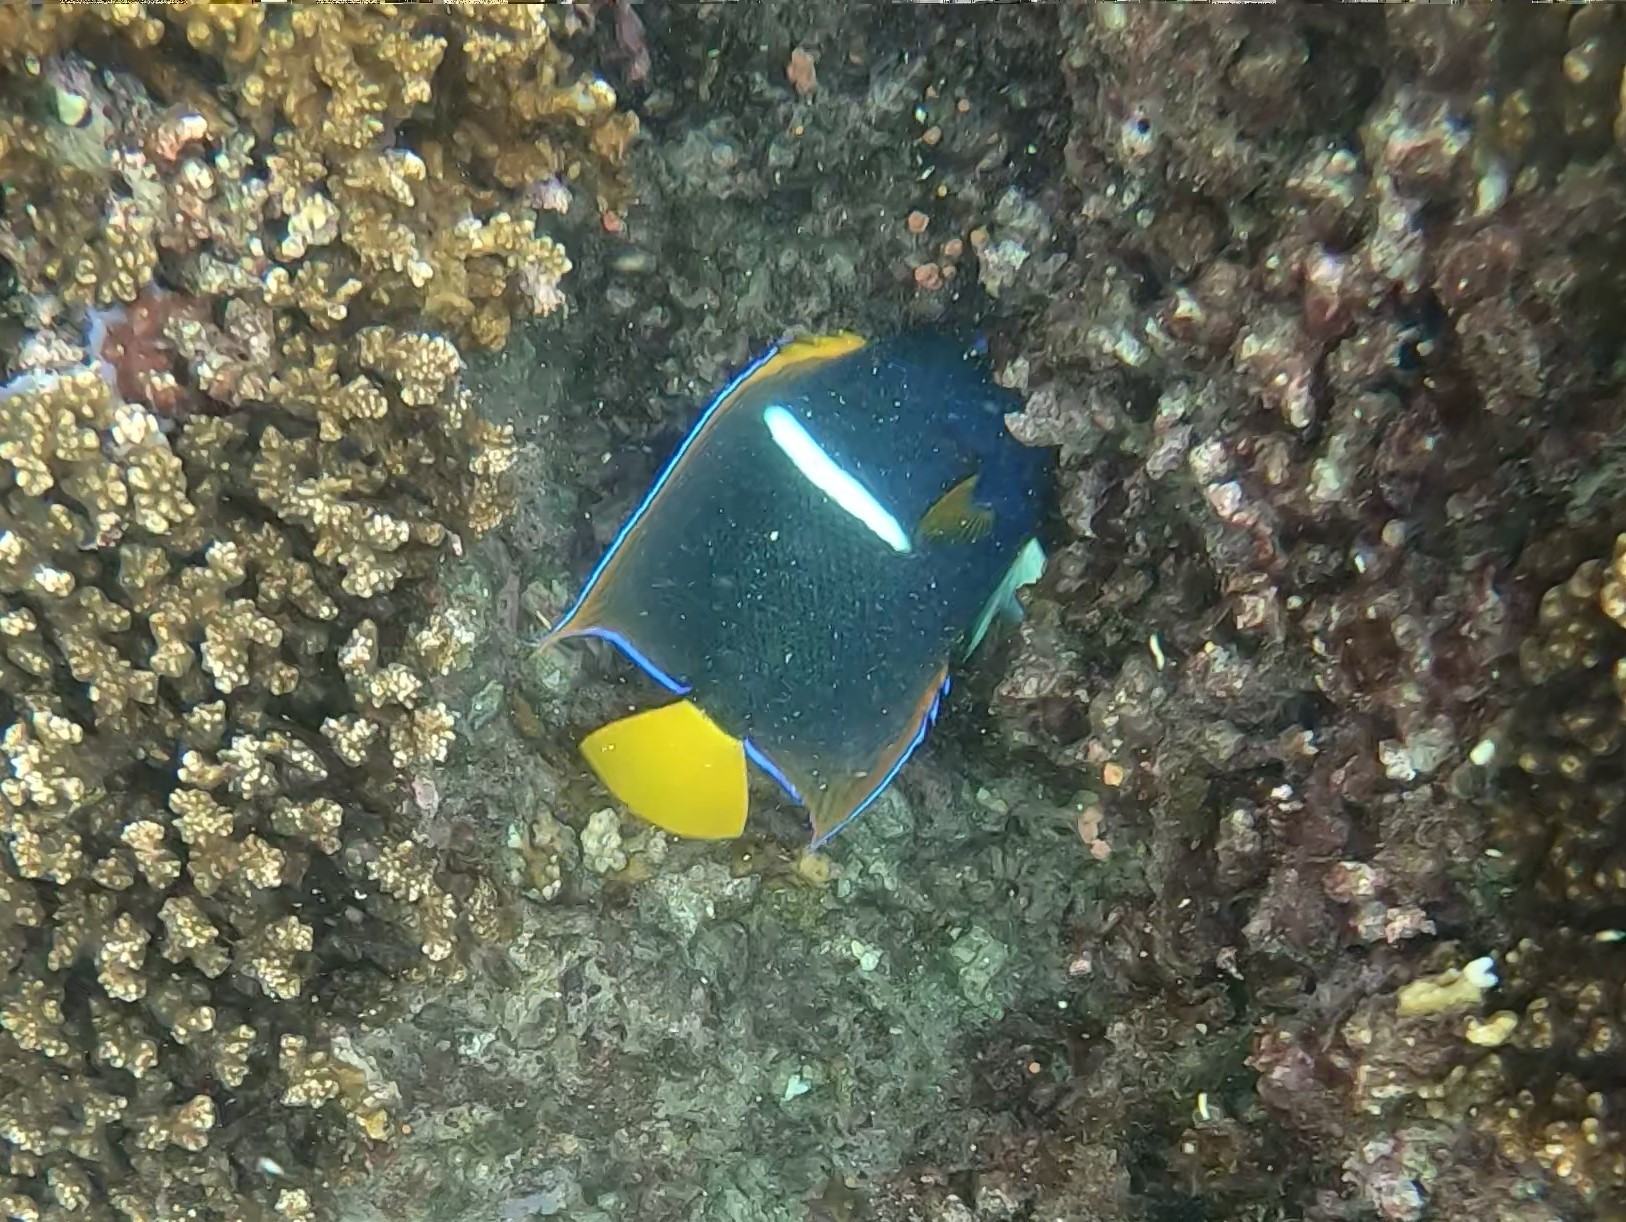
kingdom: Animalia
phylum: Chordata
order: Perciformes
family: Pomacanthidae
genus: Holacanthus
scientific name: Holacanthus passer
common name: King angelfish
